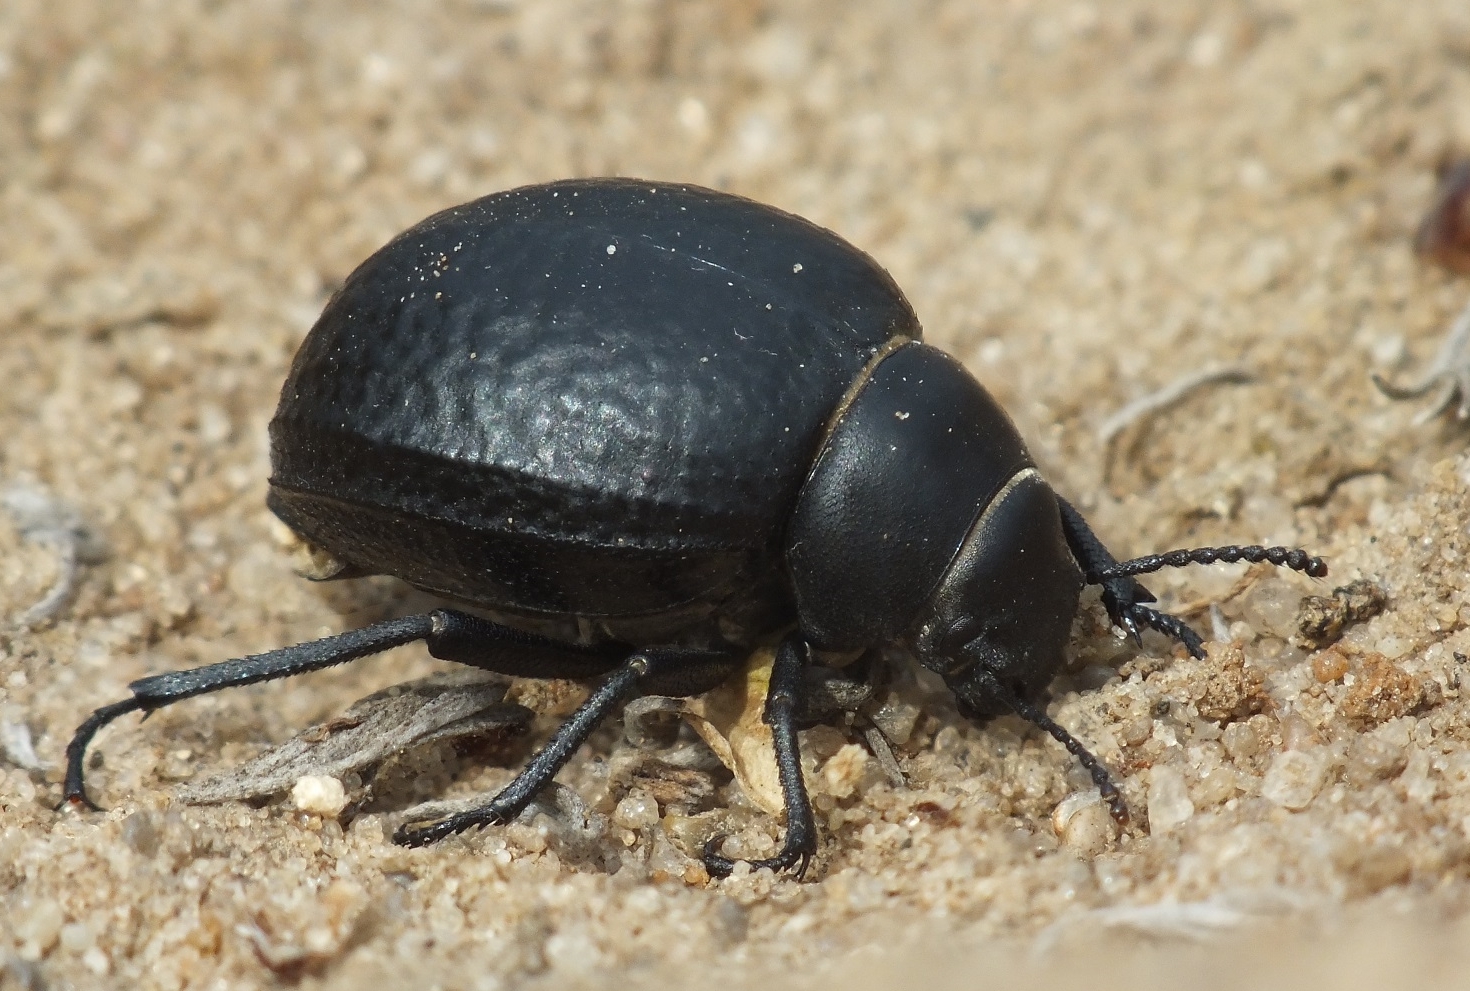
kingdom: Animalia
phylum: Arthropoda
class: Insecta
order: Coleoptera
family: Tenebrionidae
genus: Pimelia
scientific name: Pimelia subglobosa
